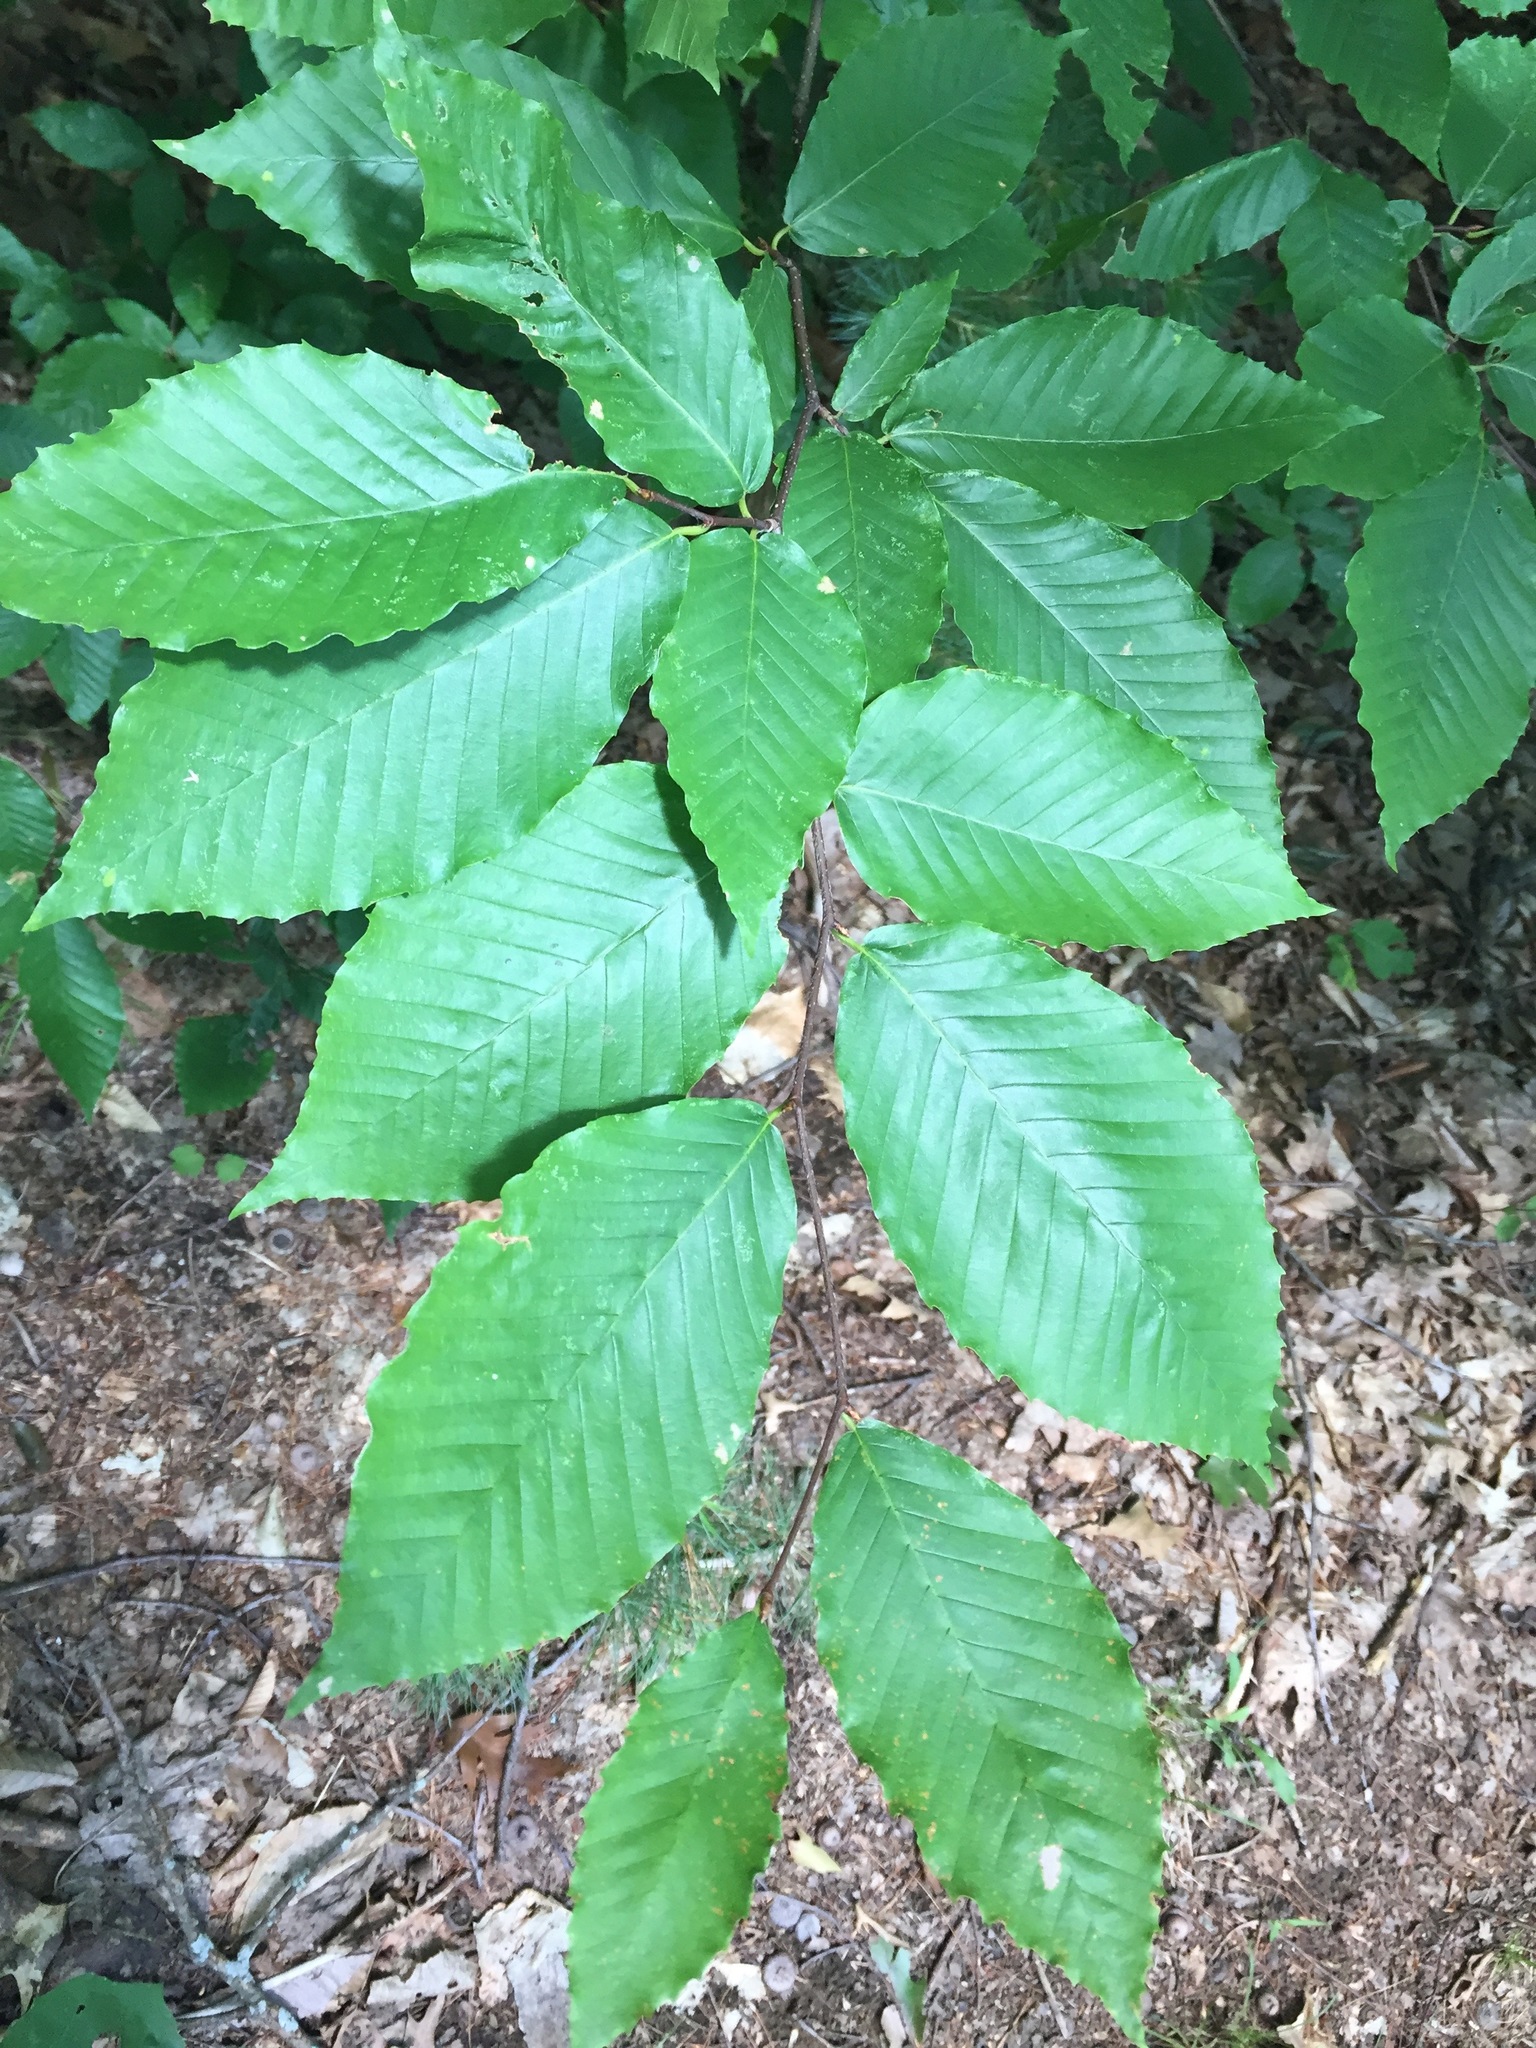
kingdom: Plantae
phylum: Tracheophyta
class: Magnoliopsida
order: Fagales
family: Fagaceae
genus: Fagus
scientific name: Fagus grandifolia
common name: American beech
